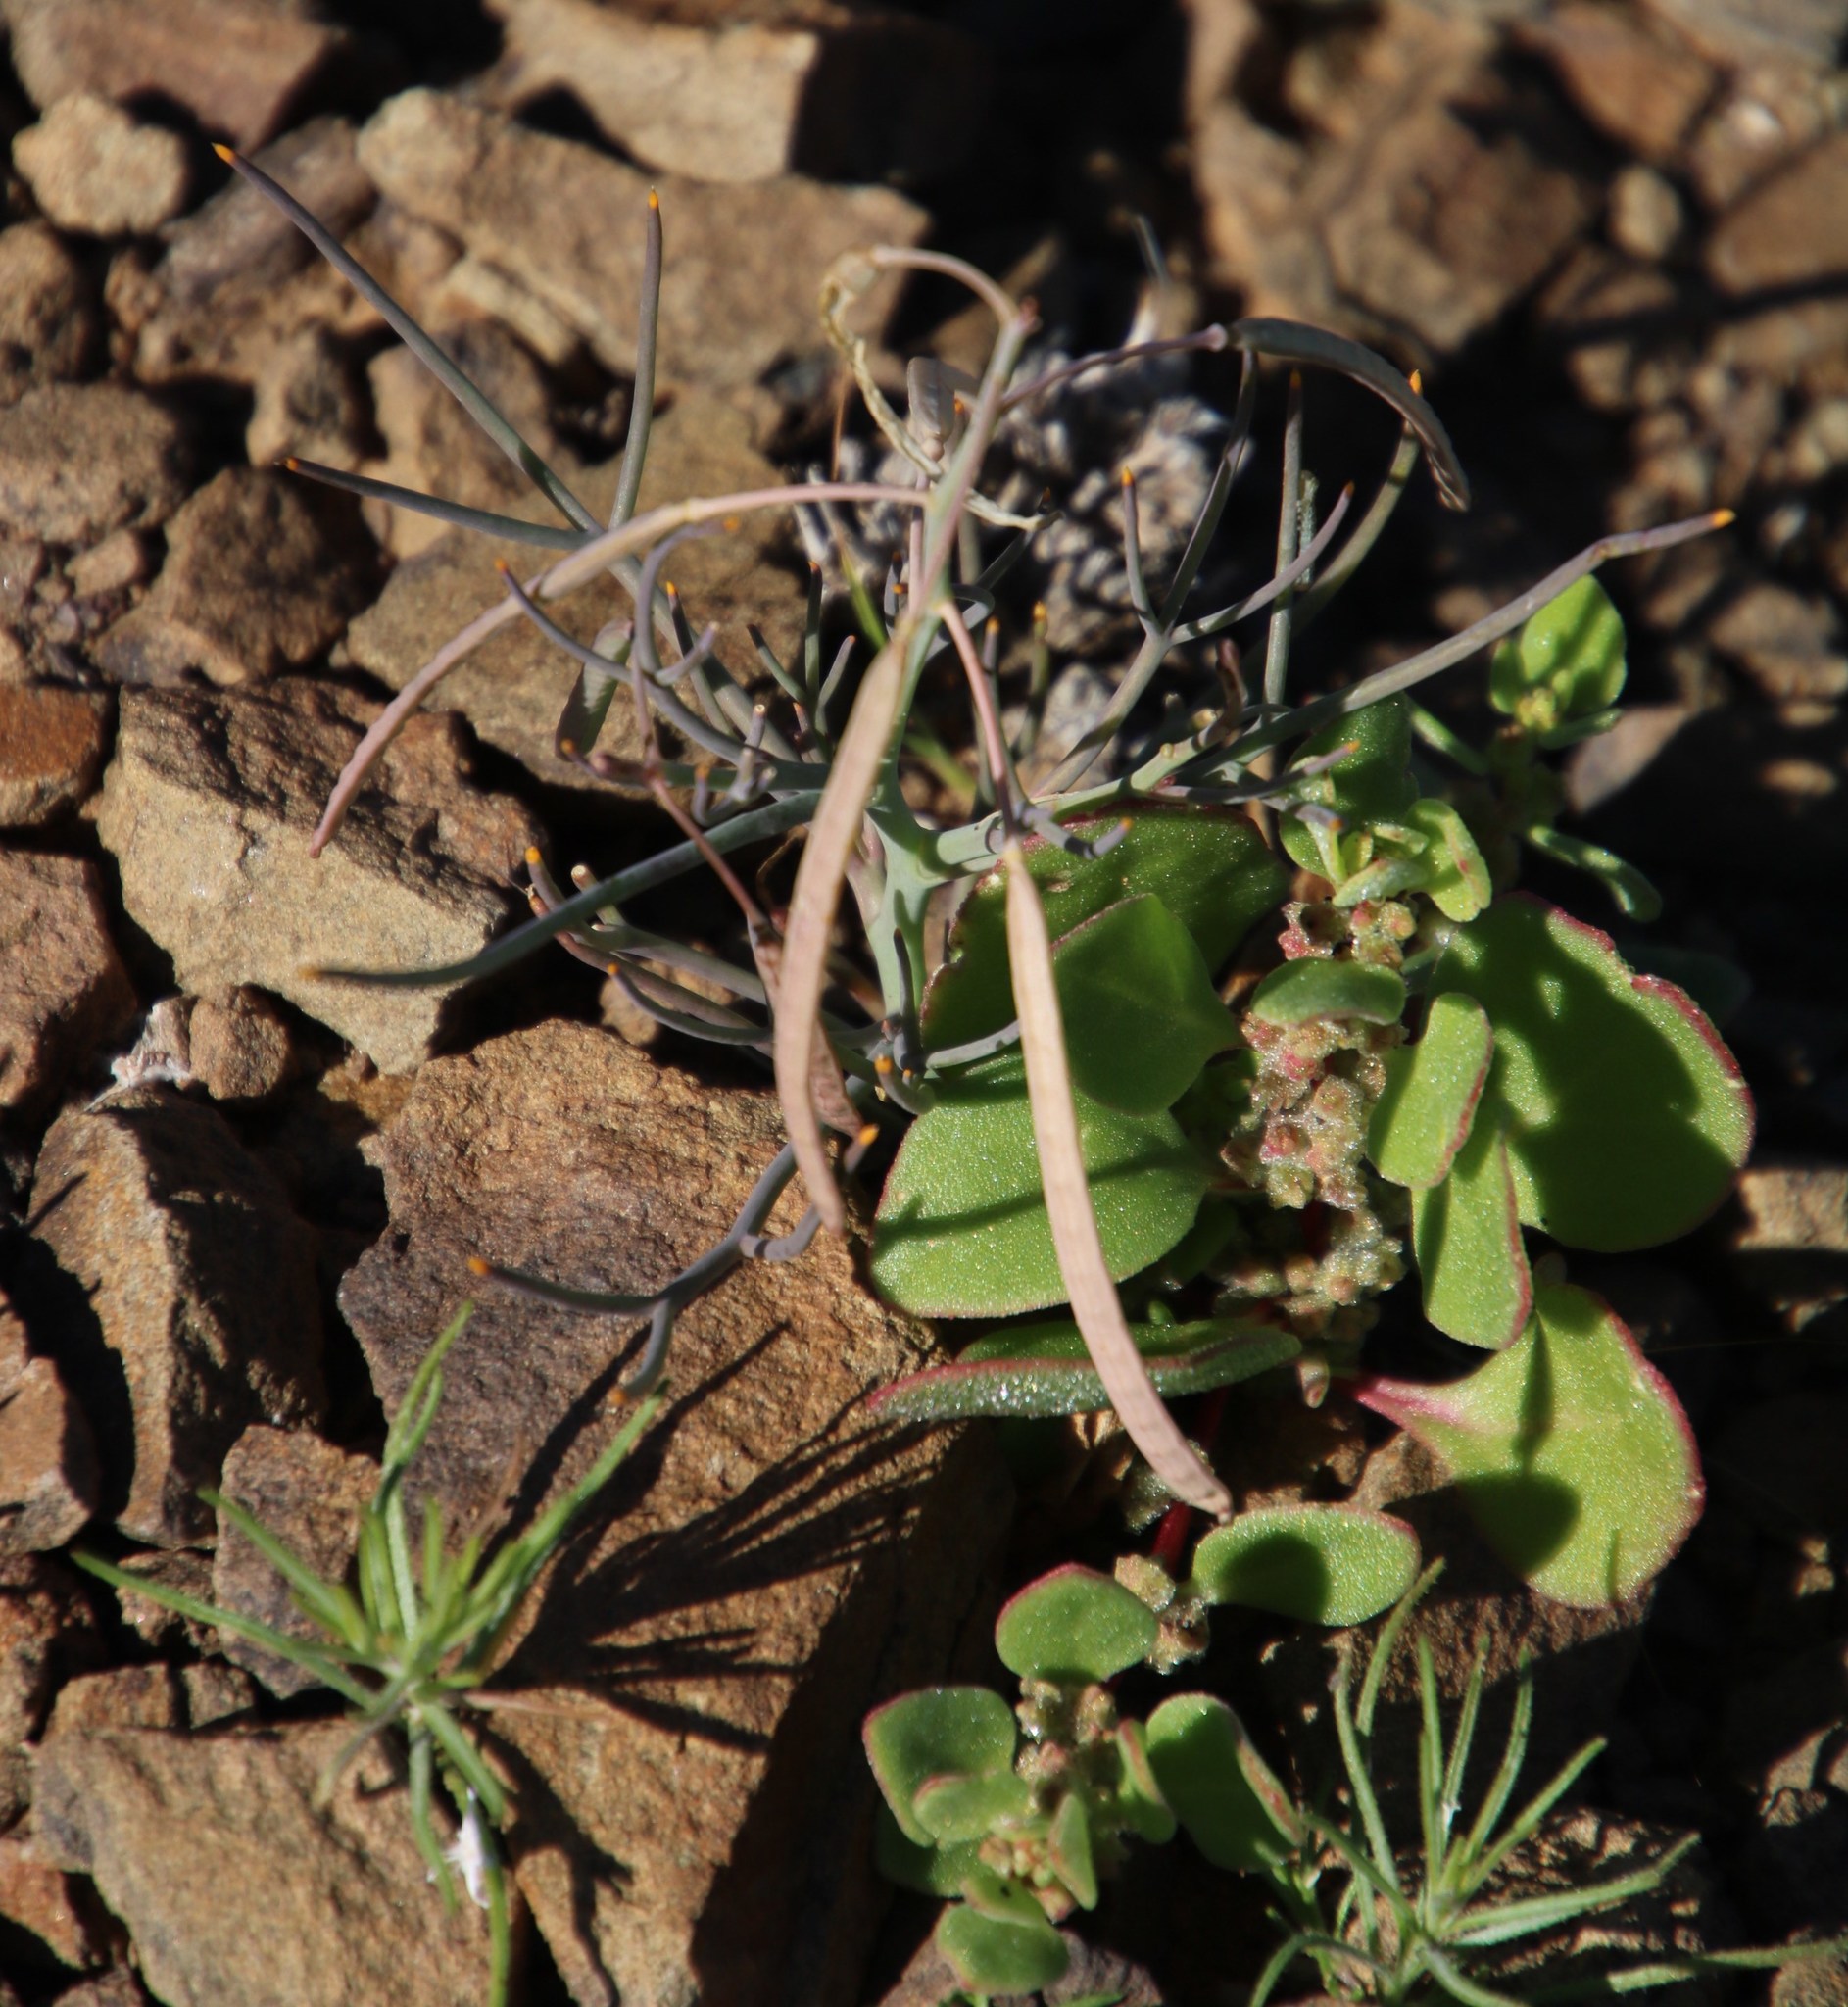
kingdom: Plantae
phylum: Tracheophyta
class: Magnoliopsida
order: Brassicales
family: Brassicaceae
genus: Heliophila
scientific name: Heliophila trifurca
